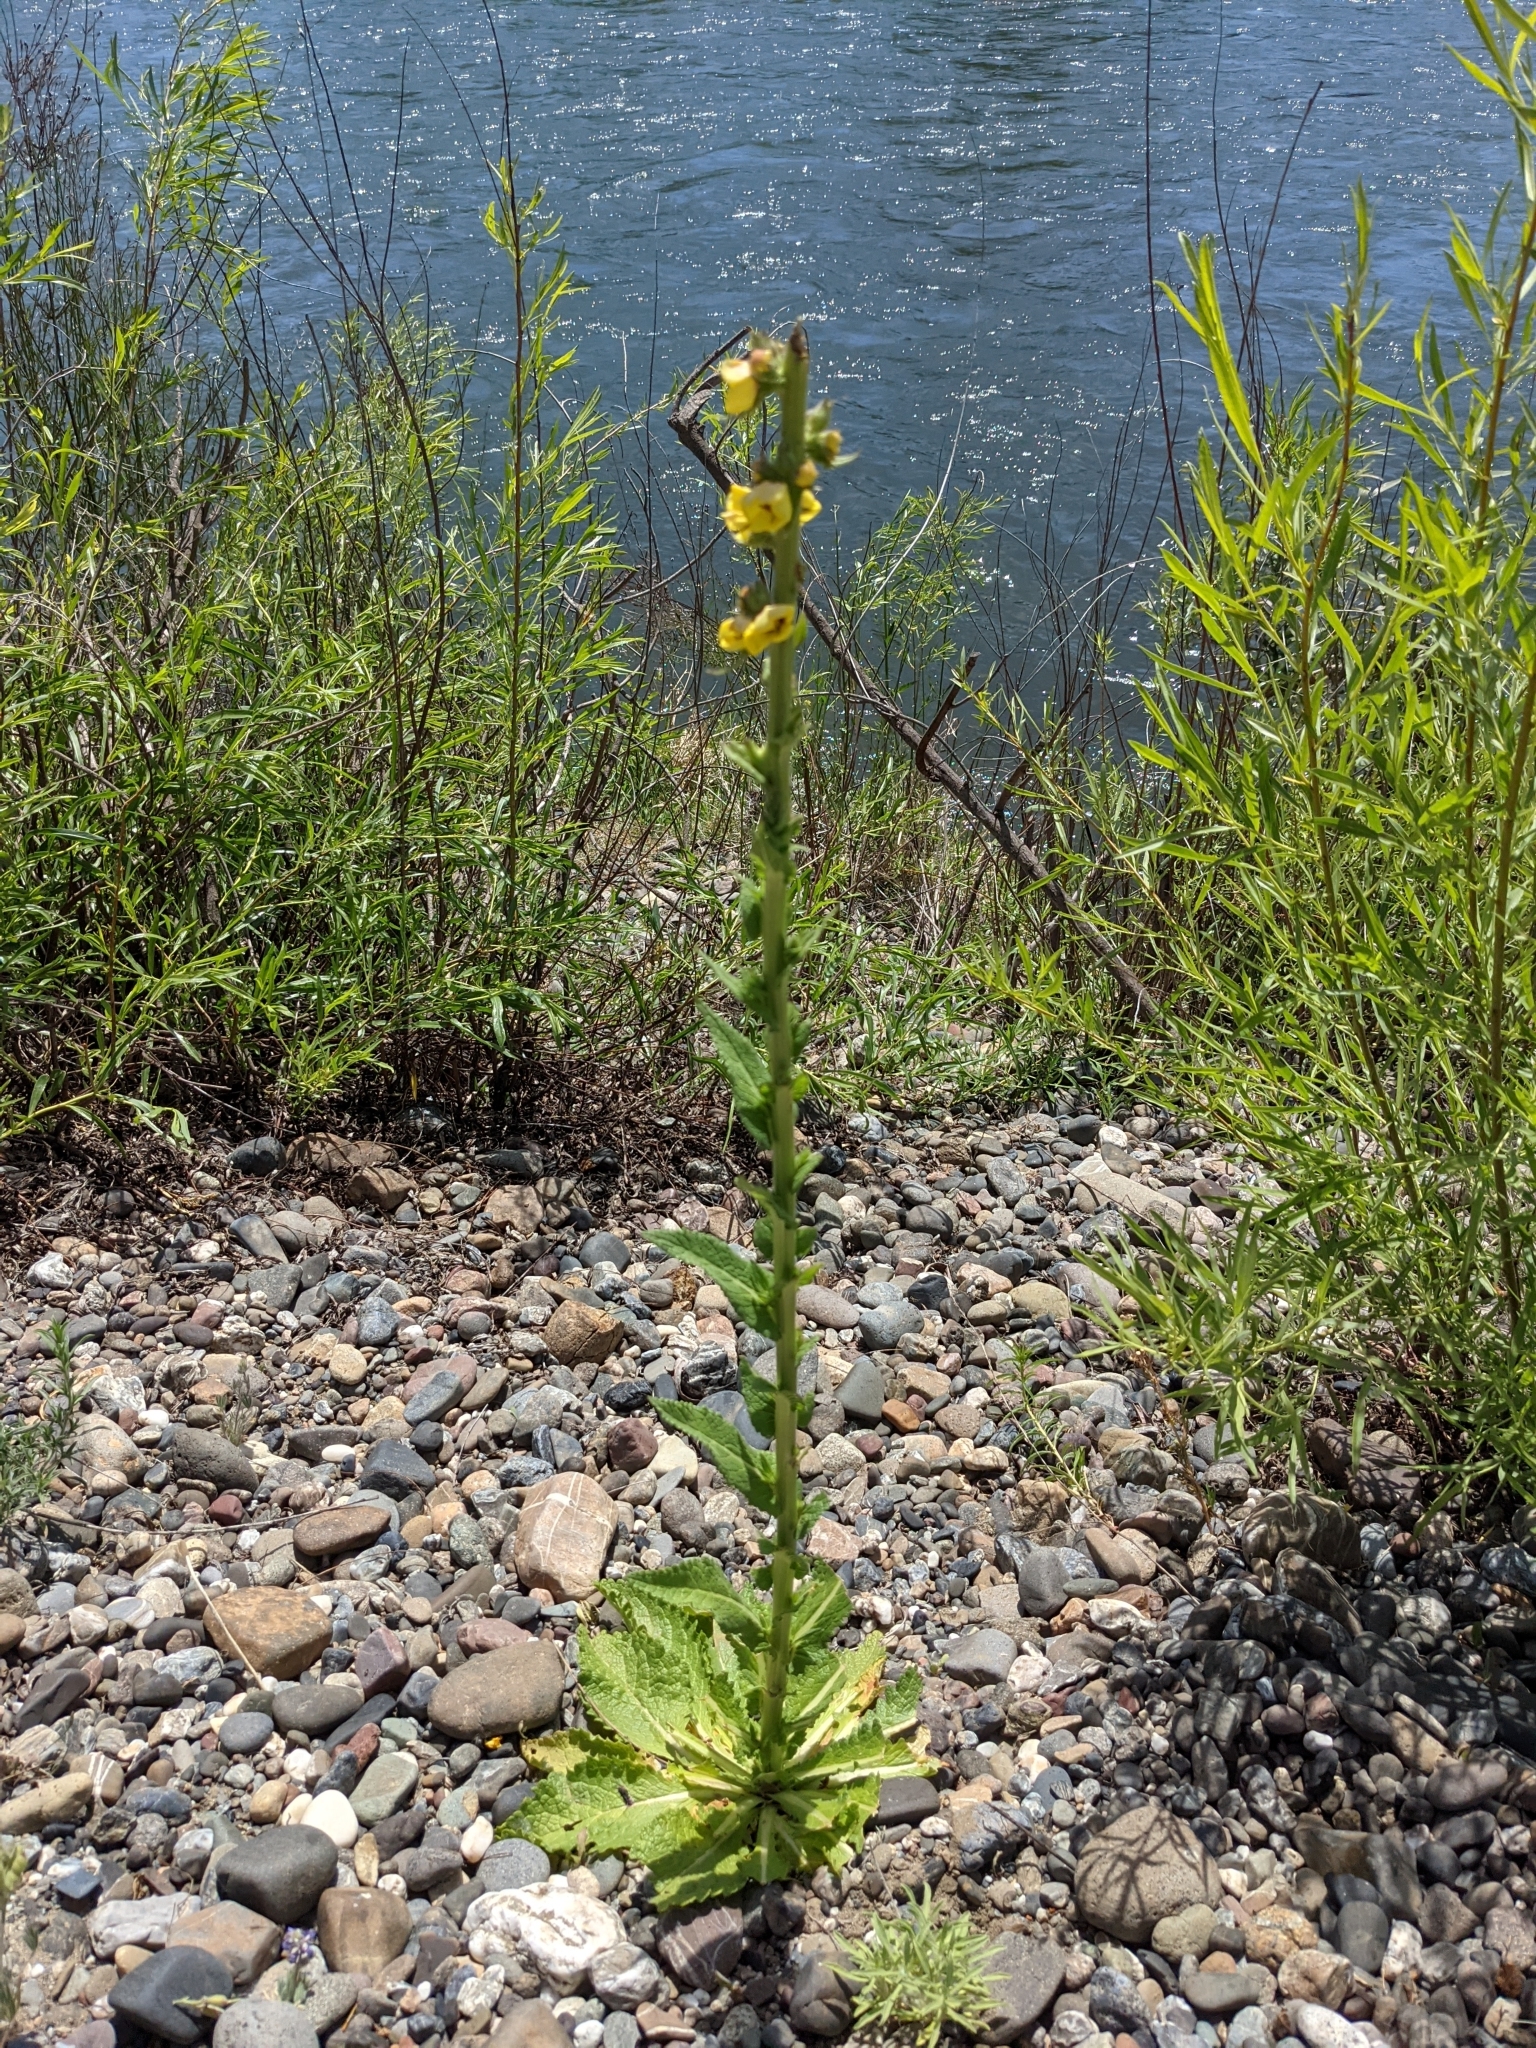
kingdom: Plantae
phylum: Tracheophyta
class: Magnoliopsida
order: Lamiales
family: Scrophulariaceae
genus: Verbascum
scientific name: Verbascum virgatum
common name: Twiggy mullein
